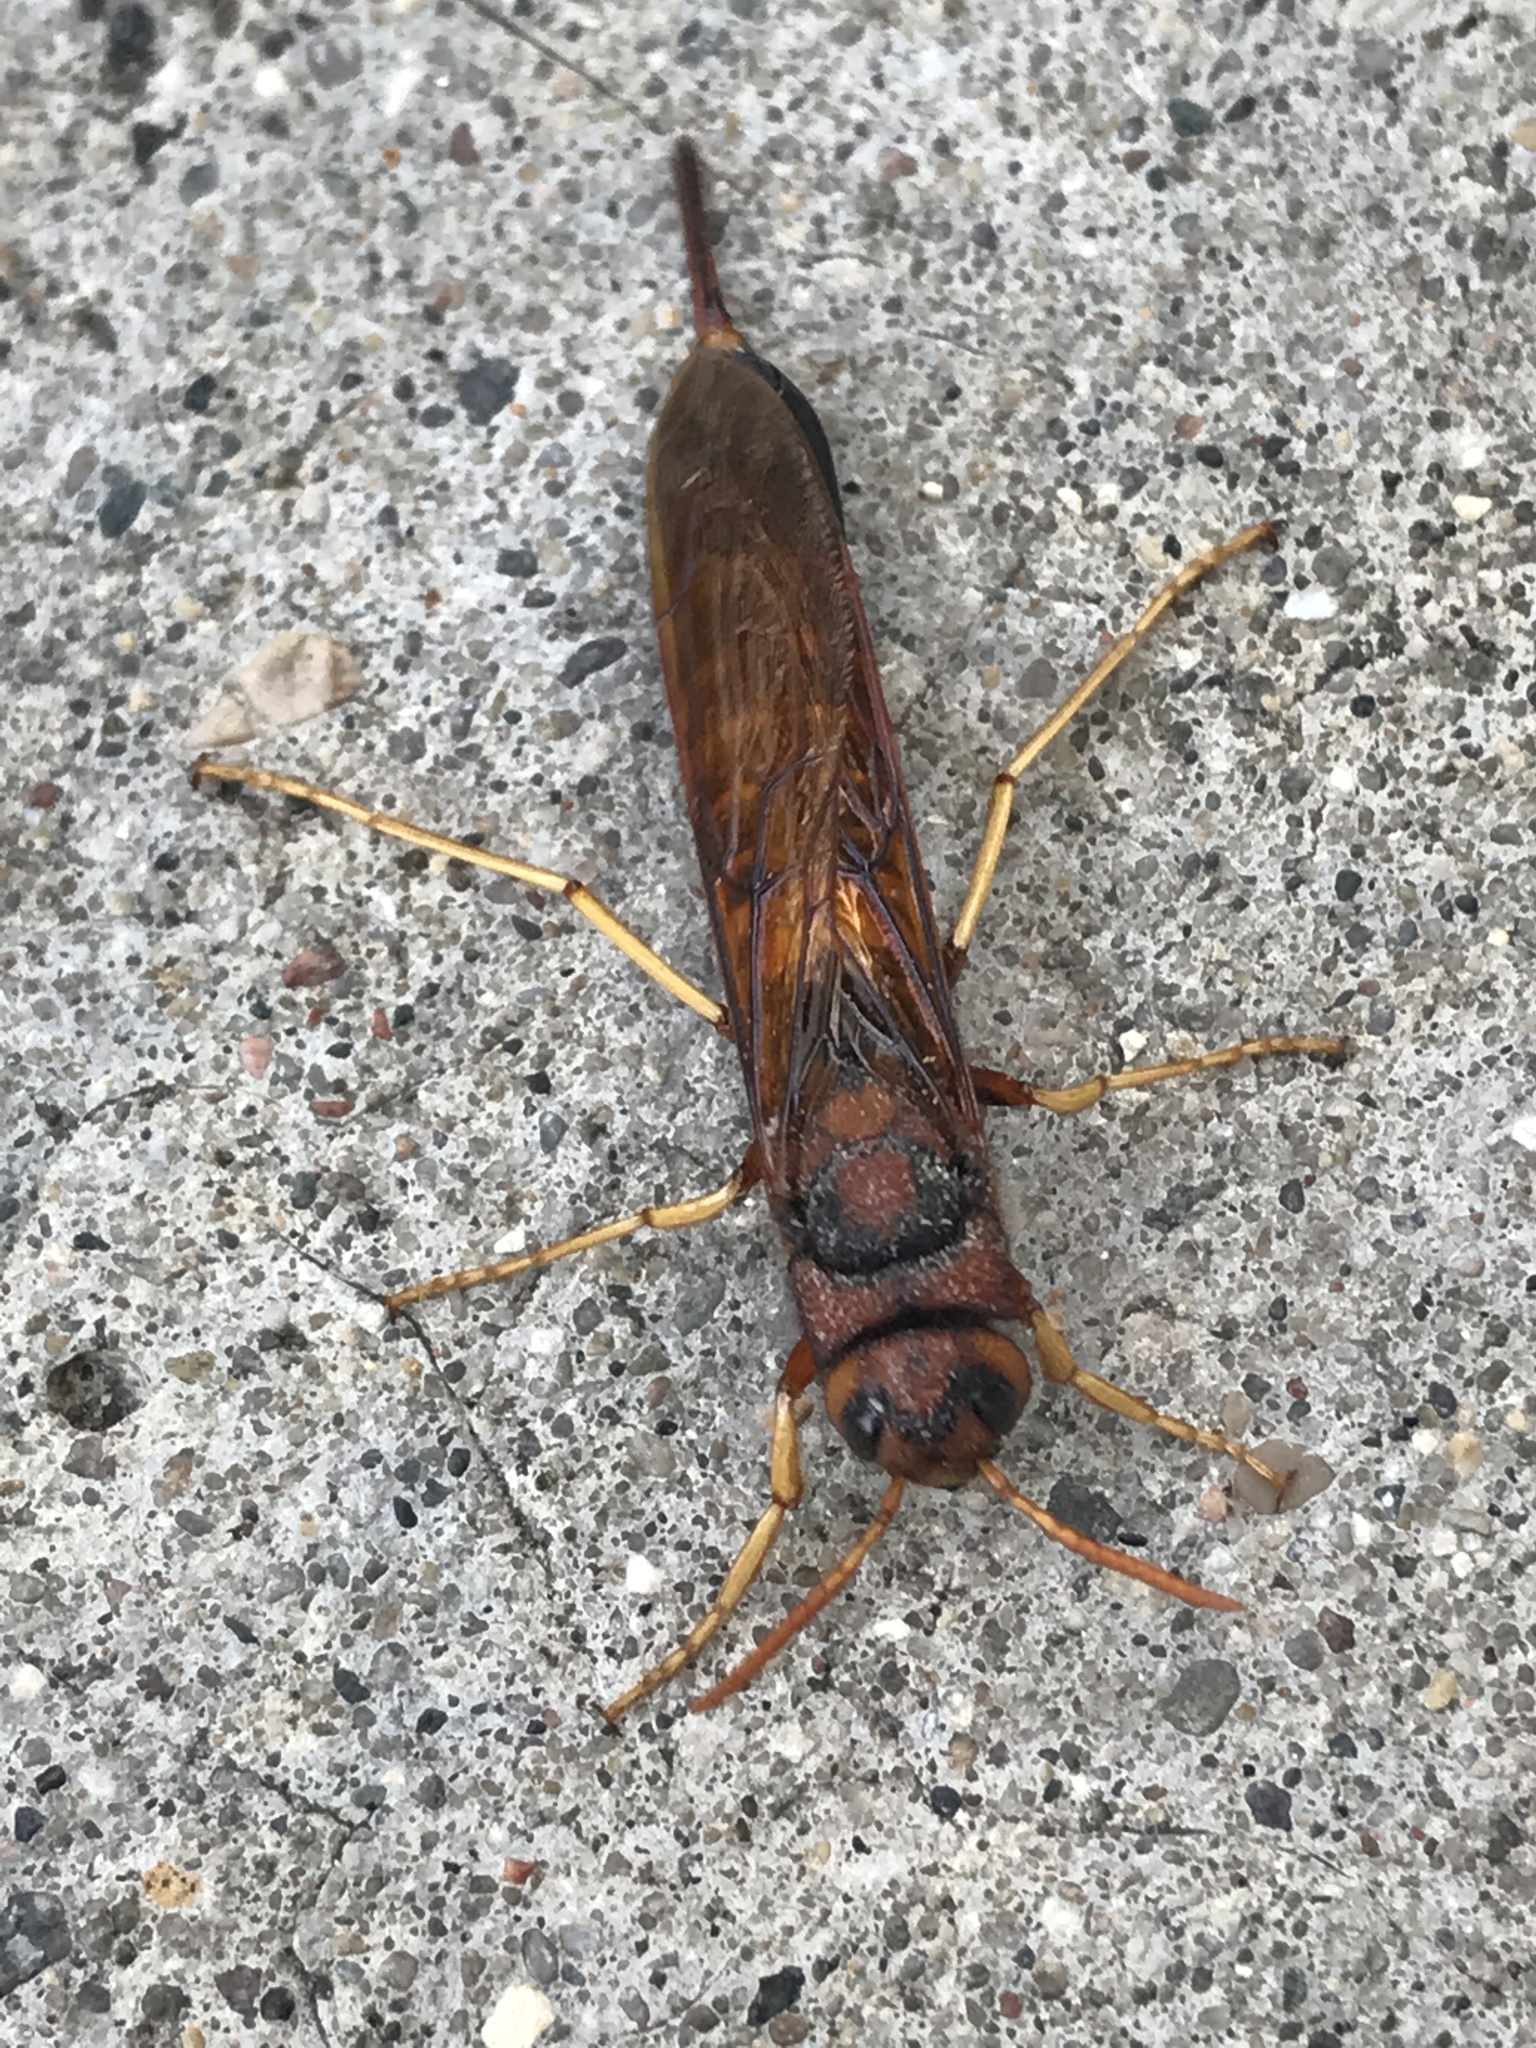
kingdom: Animalia
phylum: Arthropoda
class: Insecta
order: Hymenoptera
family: Siricidae
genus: Tremex
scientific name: Tremex columba
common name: Wasp
